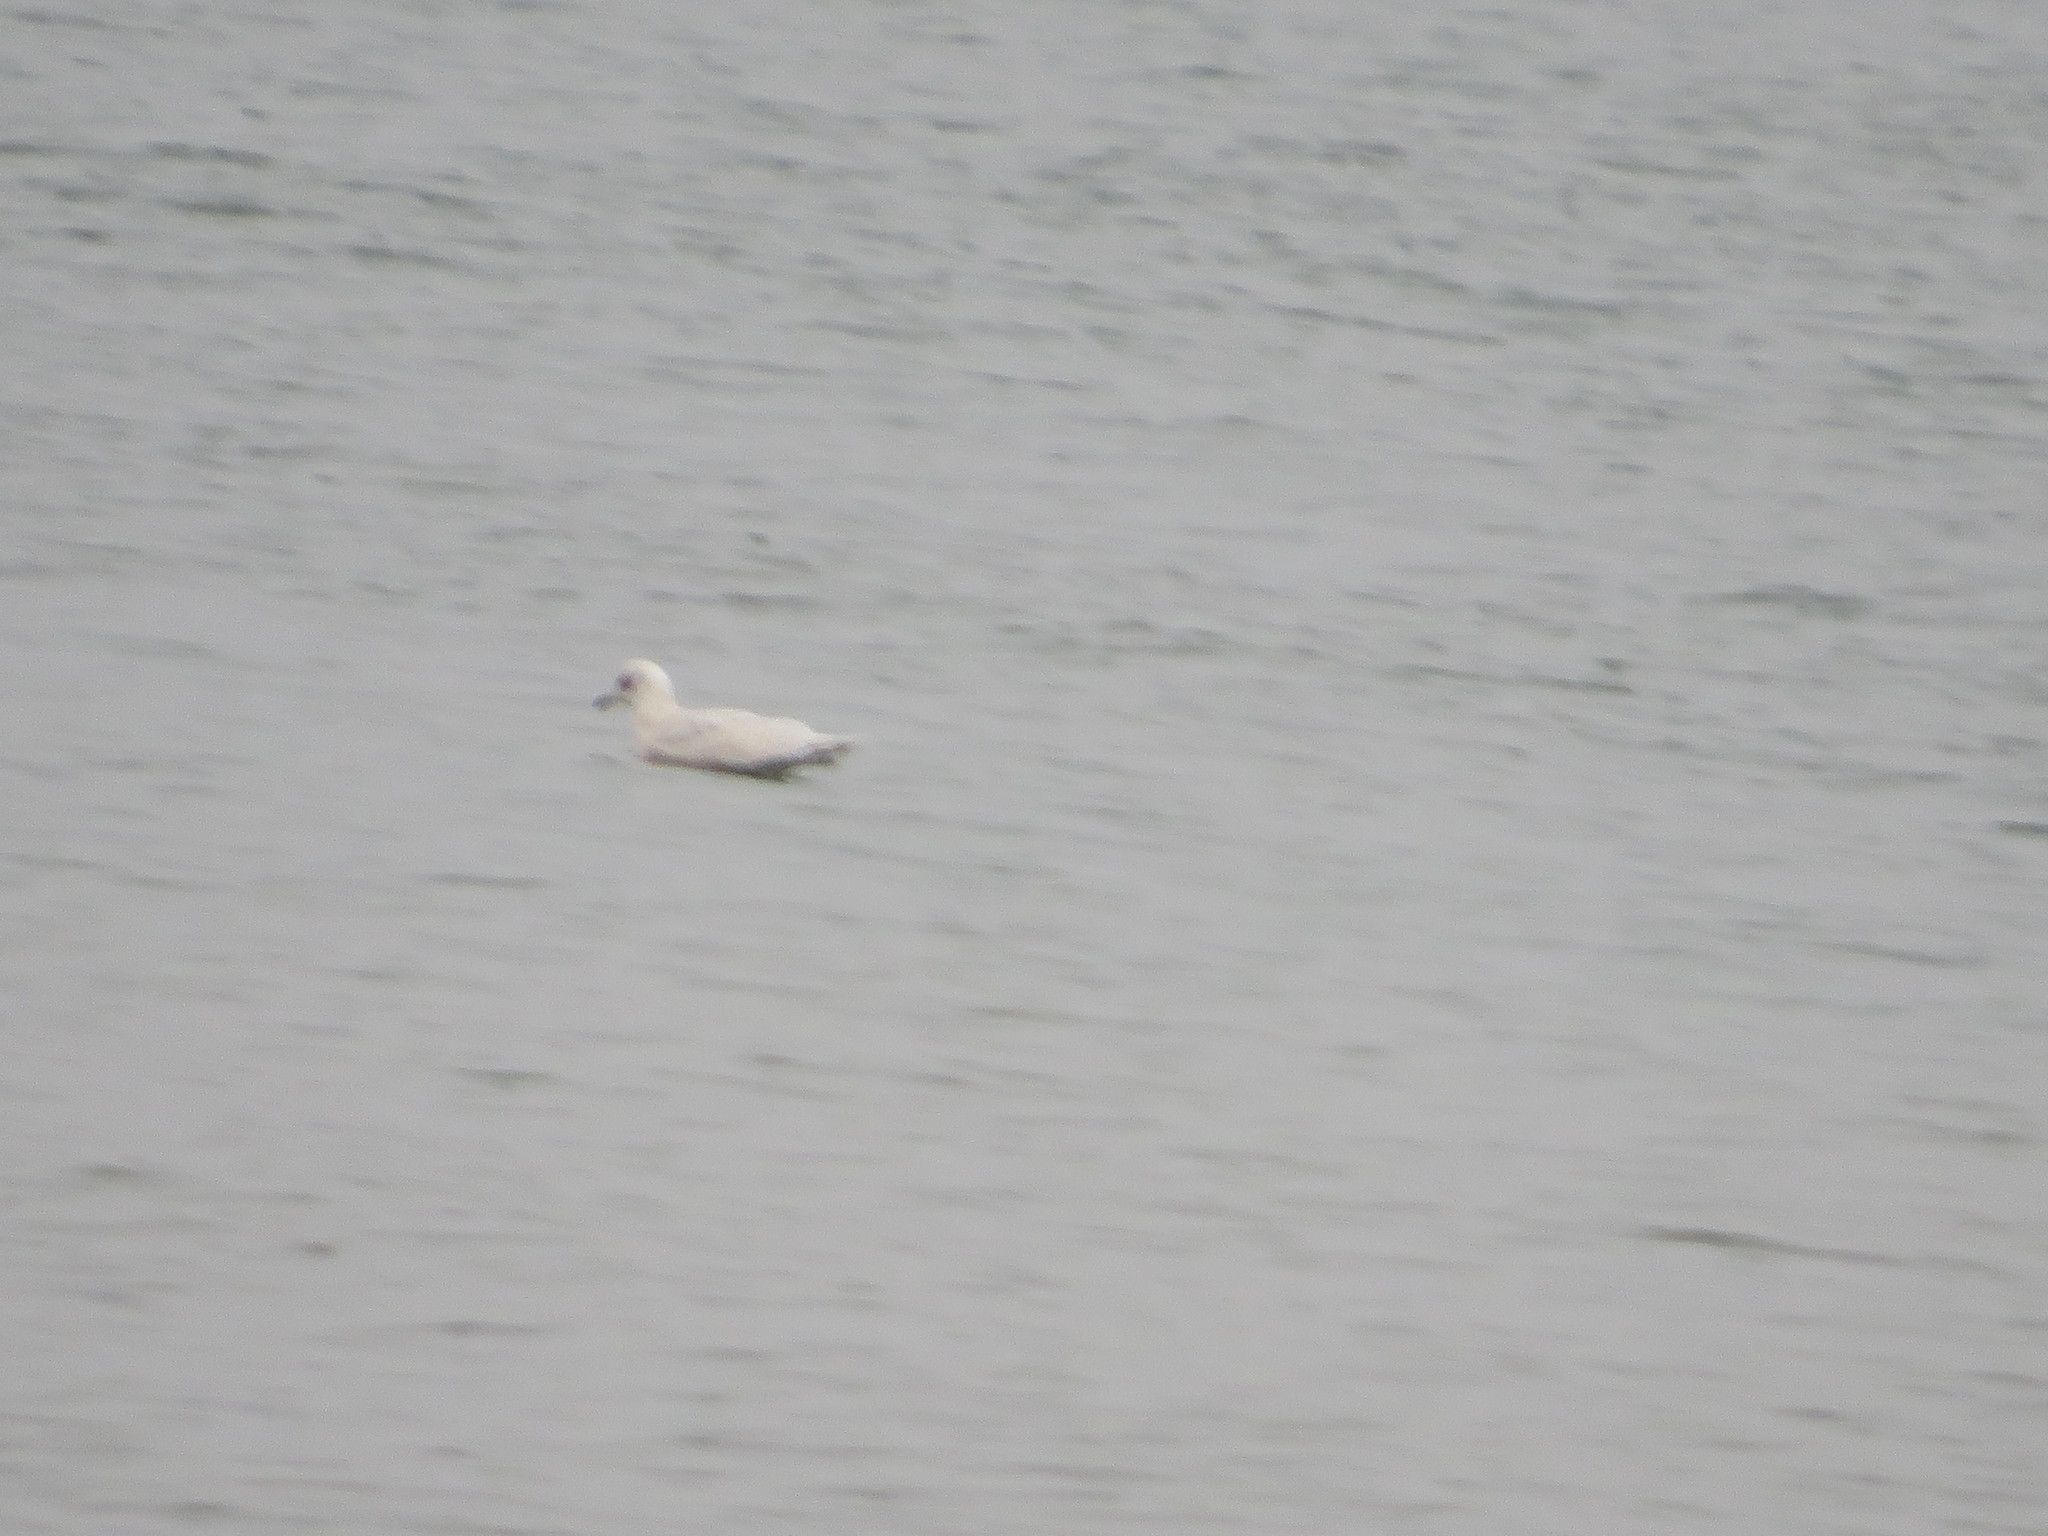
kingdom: Animalia
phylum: Chordata
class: Aves
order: Charadriiformes
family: Laridae
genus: Larus
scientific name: Larus glaucoides
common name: Iceland gull
